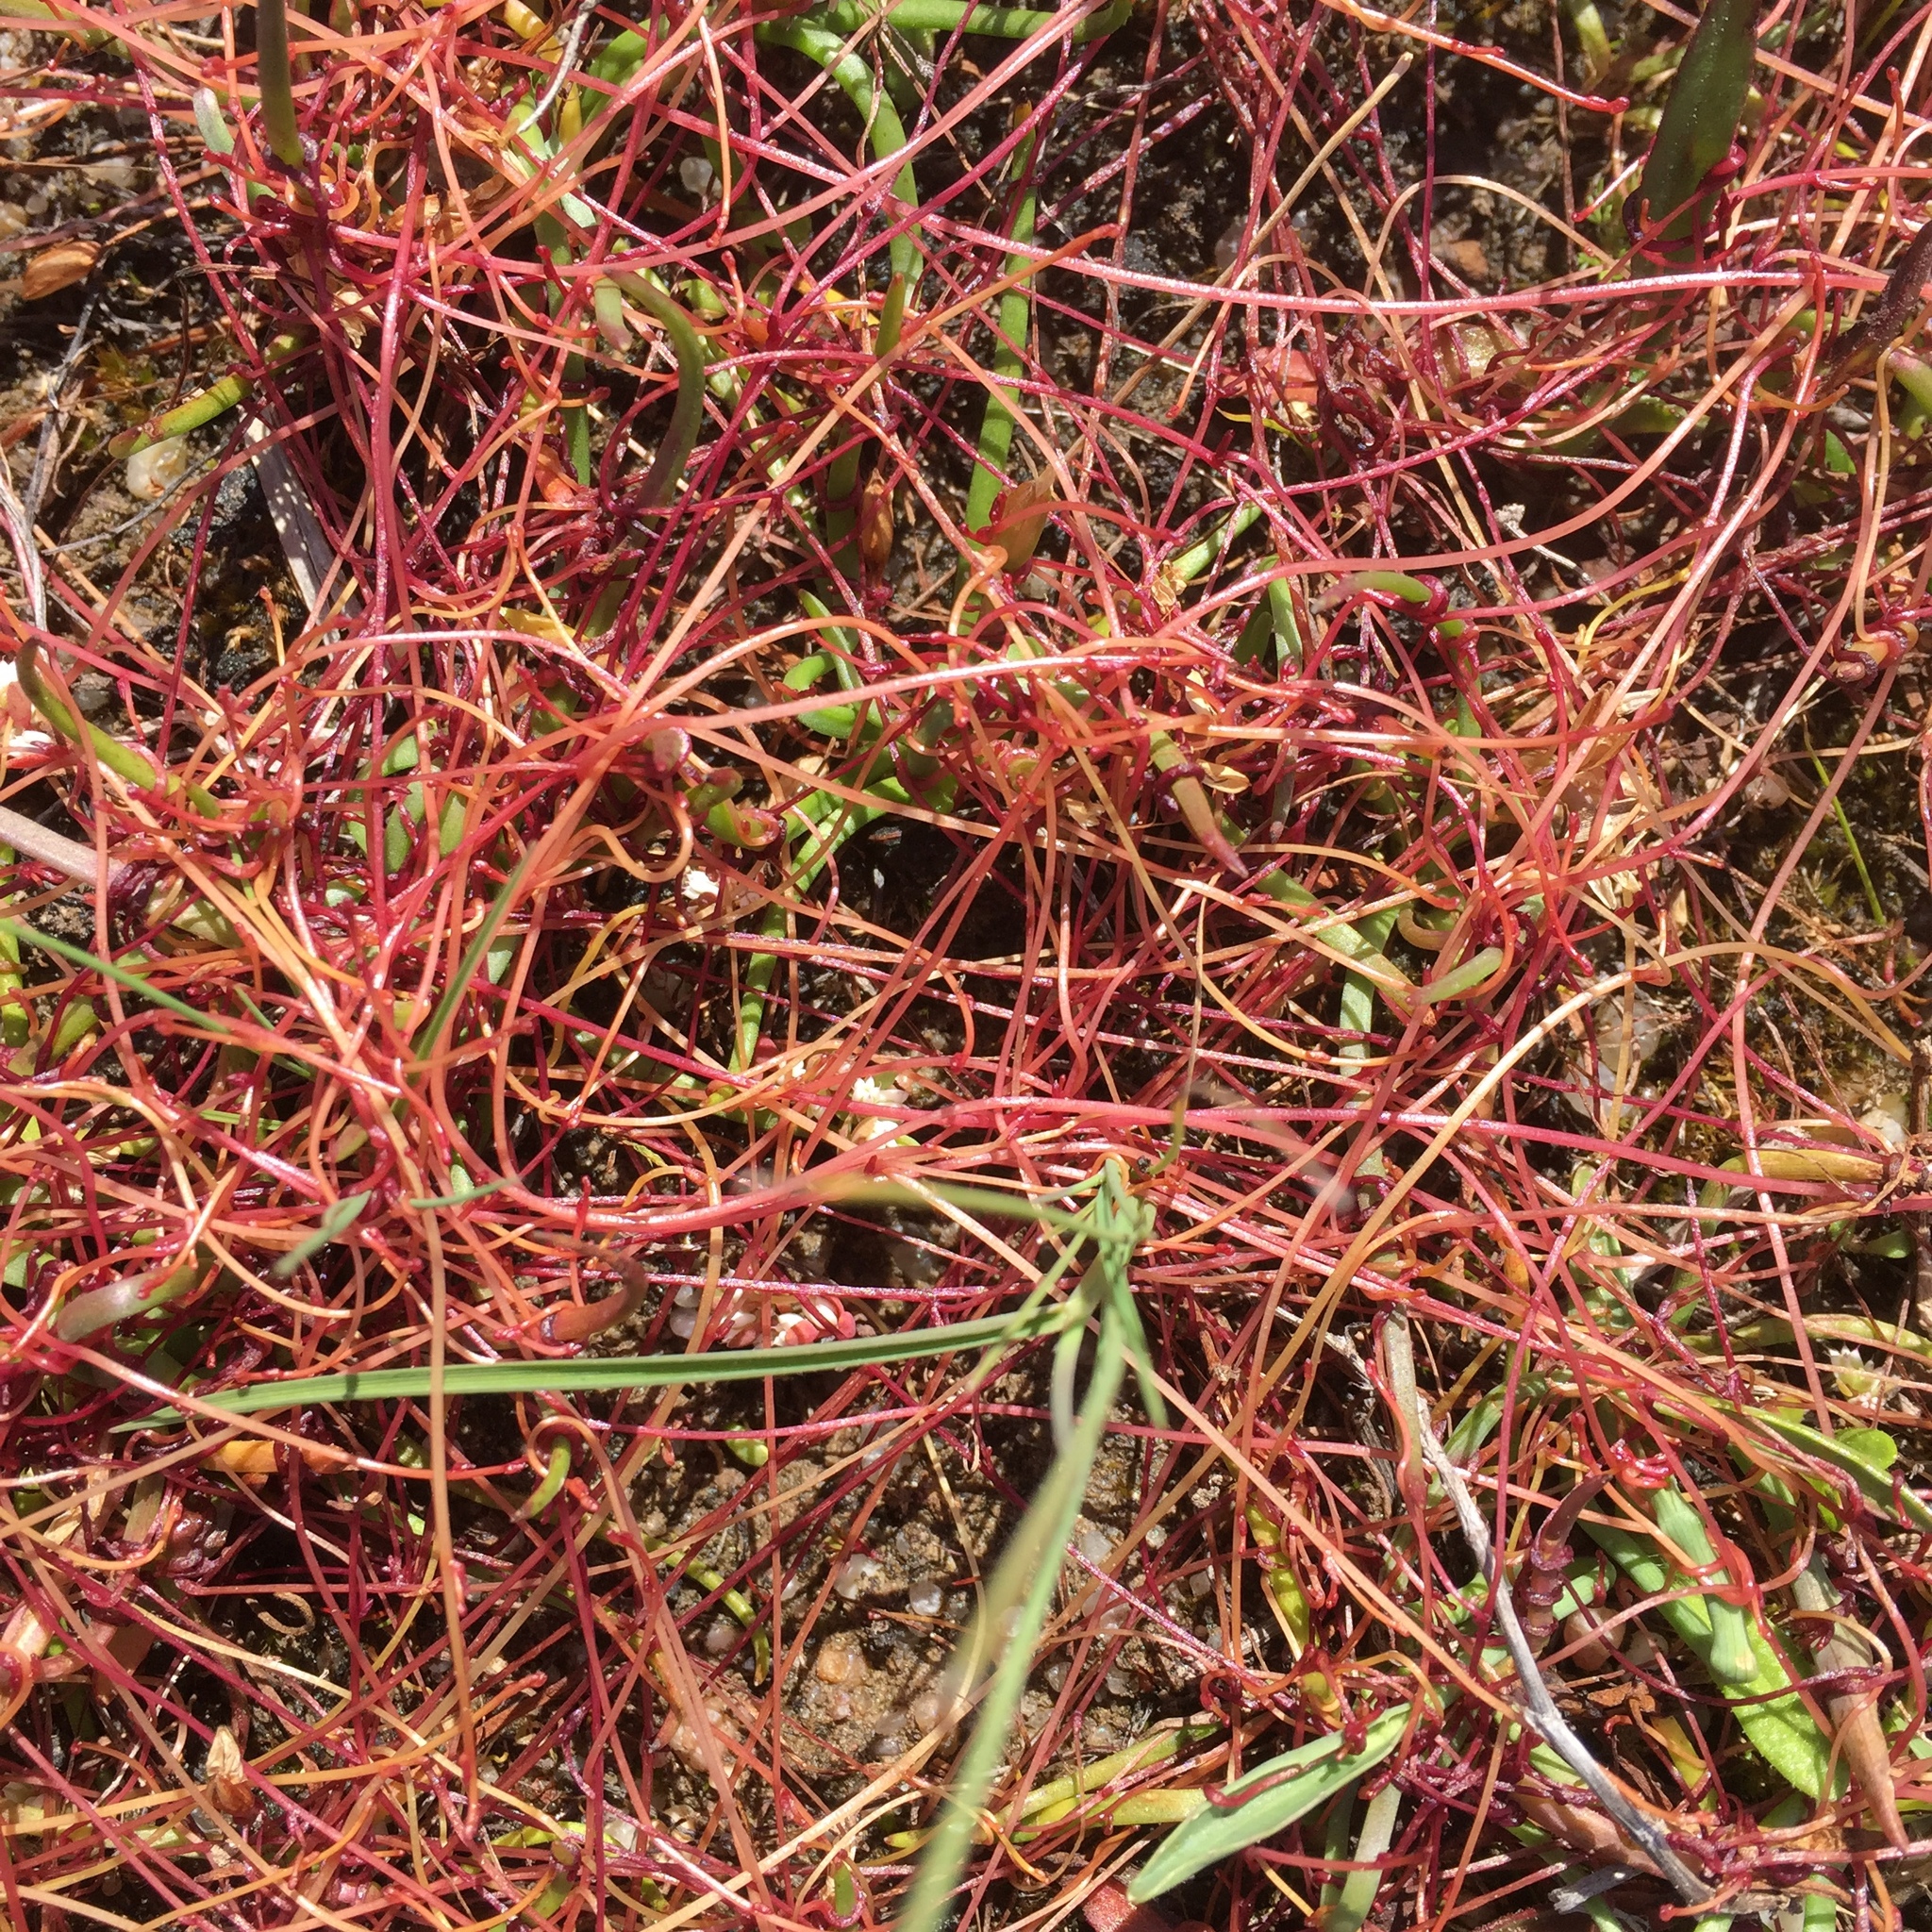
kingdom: Plantae
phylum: Tracheophyta
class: Magnoliopsida
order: Solanales
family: Convolvulaceae
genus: Cuscuta
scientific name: Cuscuta epithymum
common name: Clover dodder
